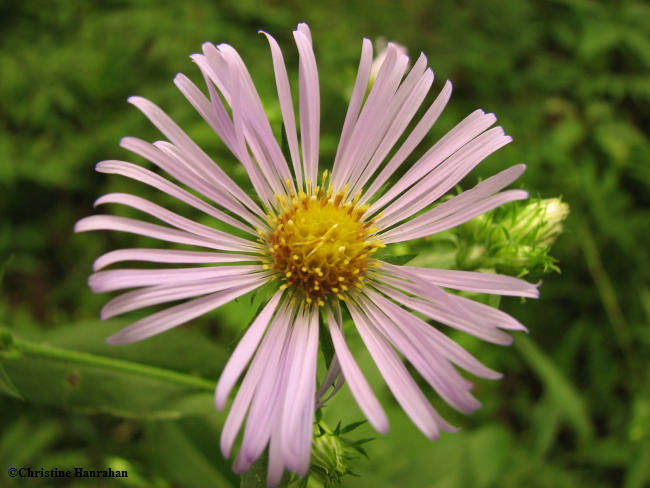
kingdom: Plantae
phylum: Tracheophyta
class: Magnoliopsida
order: Asterales
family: Asteraceae
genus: Symphyotrichum
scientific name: Symphyotrichum puniceum
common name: Bog aster
